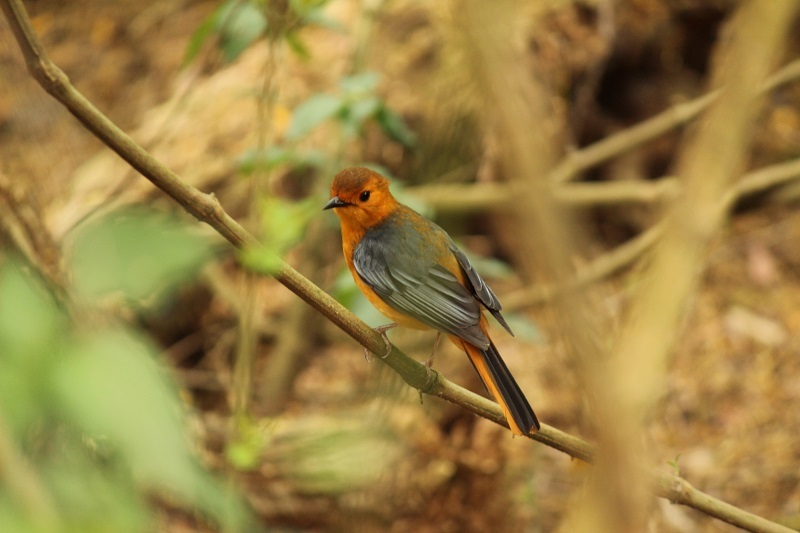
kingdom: Animalia
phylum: Chordata
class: Aves
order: Passeriformes
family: Muscicapidae
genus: Cossypha
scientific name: Cossypha natalensis
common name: Red-capped robin-chat
